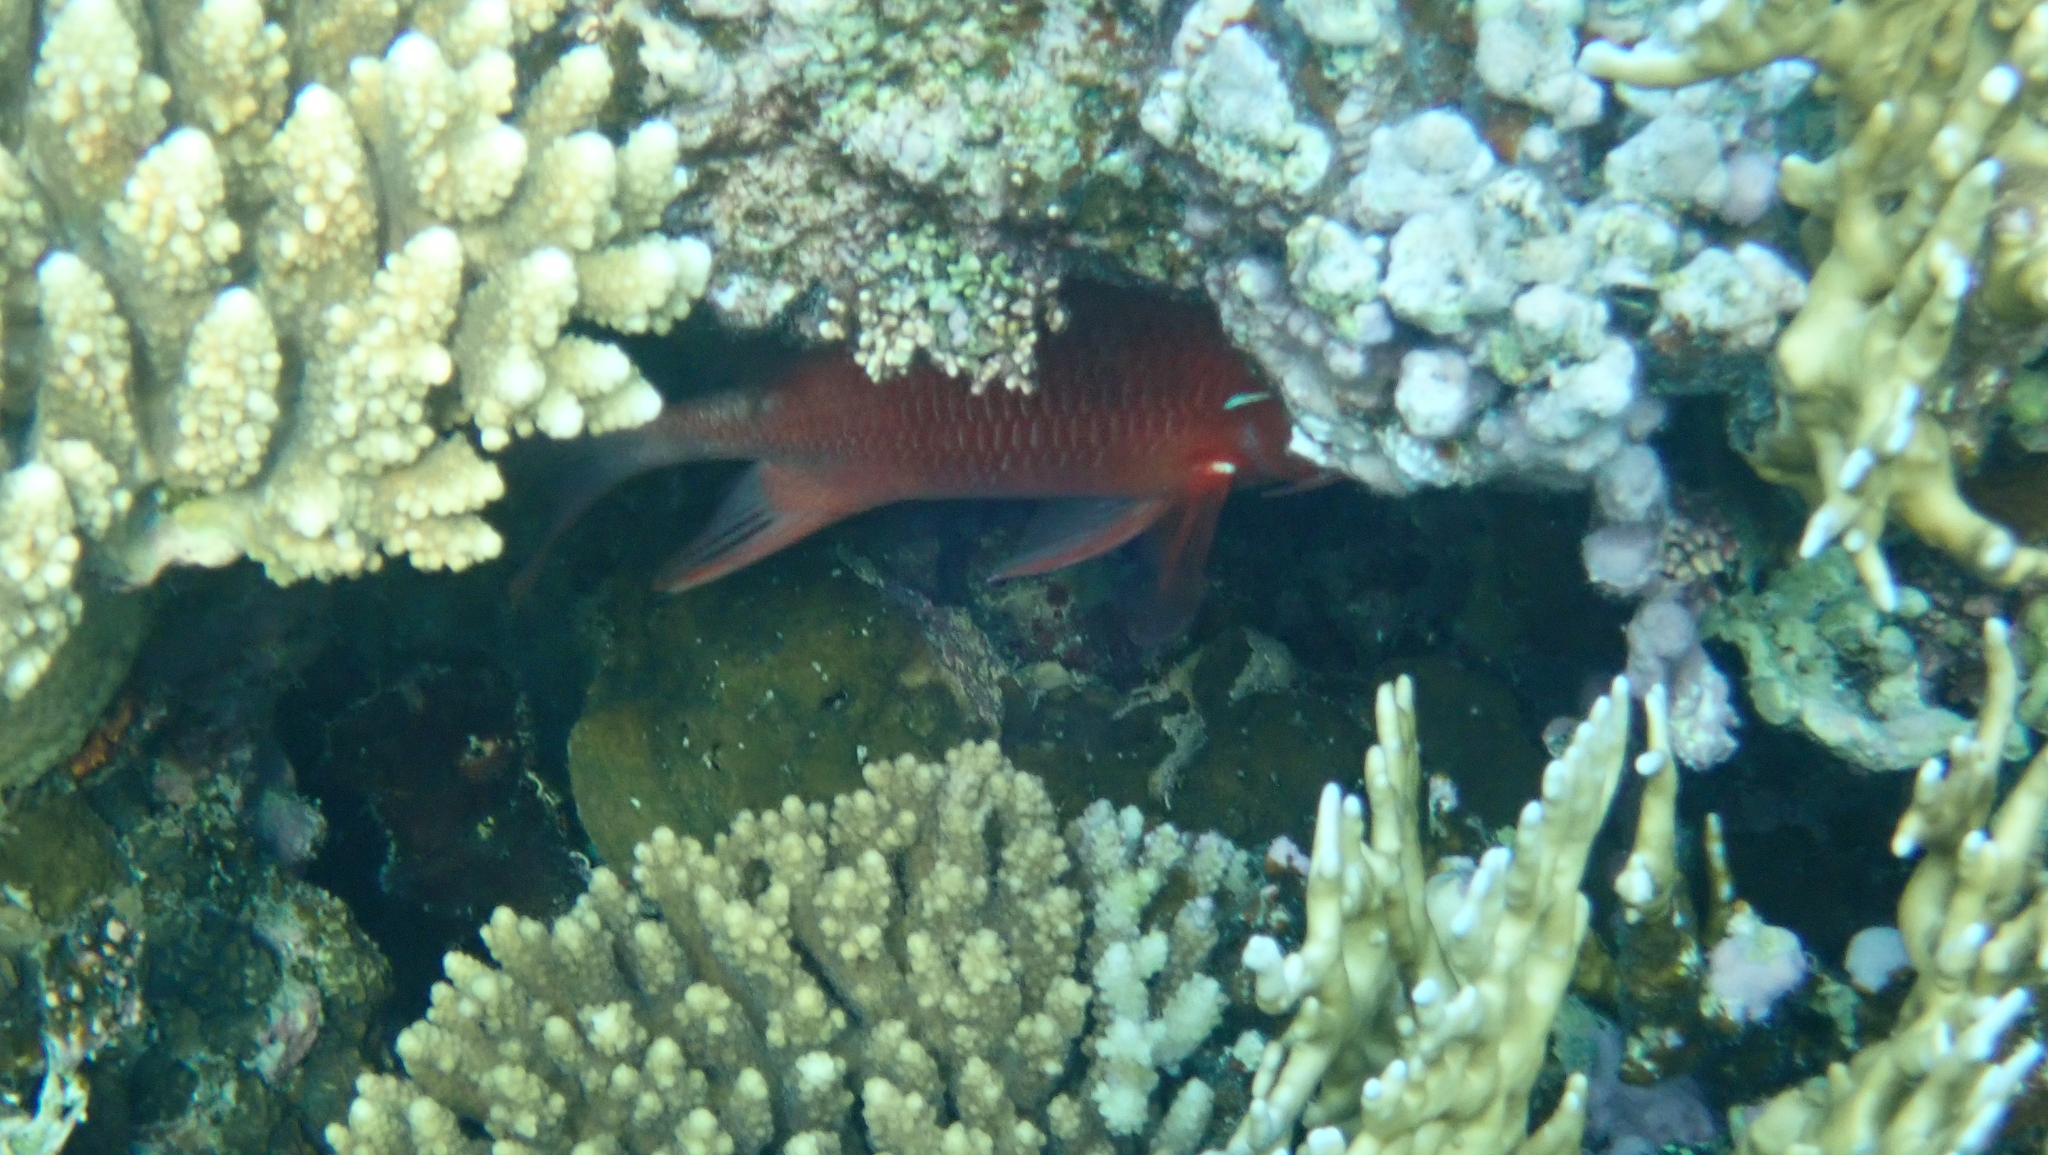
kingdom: Animalia
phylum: Chordata
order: Beryciformes
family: Holocentridae
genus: Sargocentron
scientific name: Sargocentron caudimaculatum
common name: Fanfin soldier
